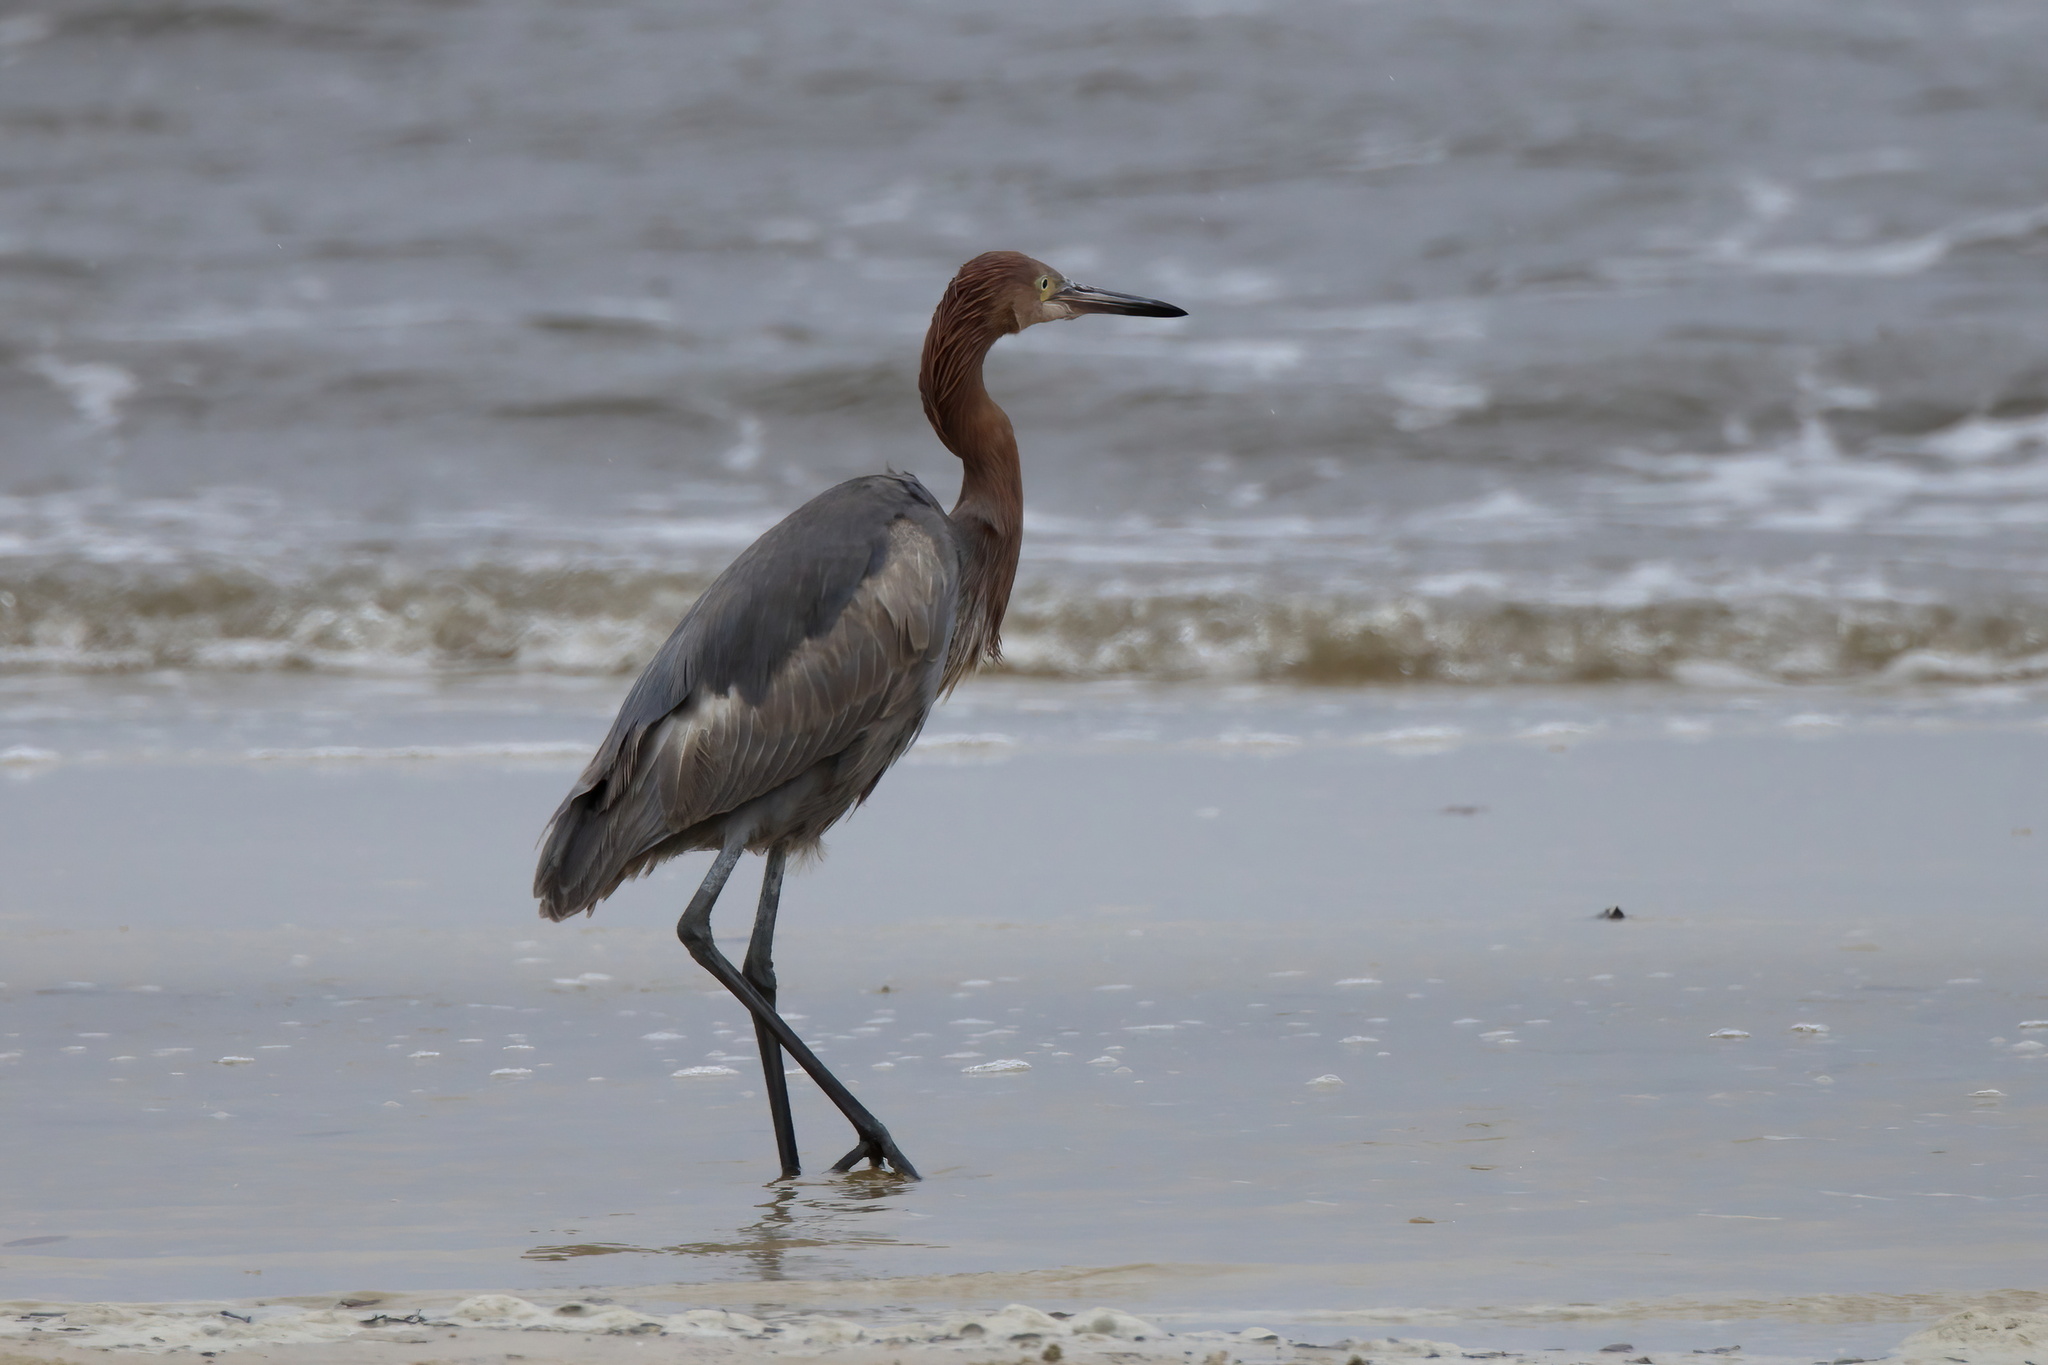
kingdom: Animalia
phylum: Chordata
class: Aves
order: Pelecaniformes
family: Ardeidae
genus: Egretta
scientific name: Egretta rufescens
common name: Reddish egret
